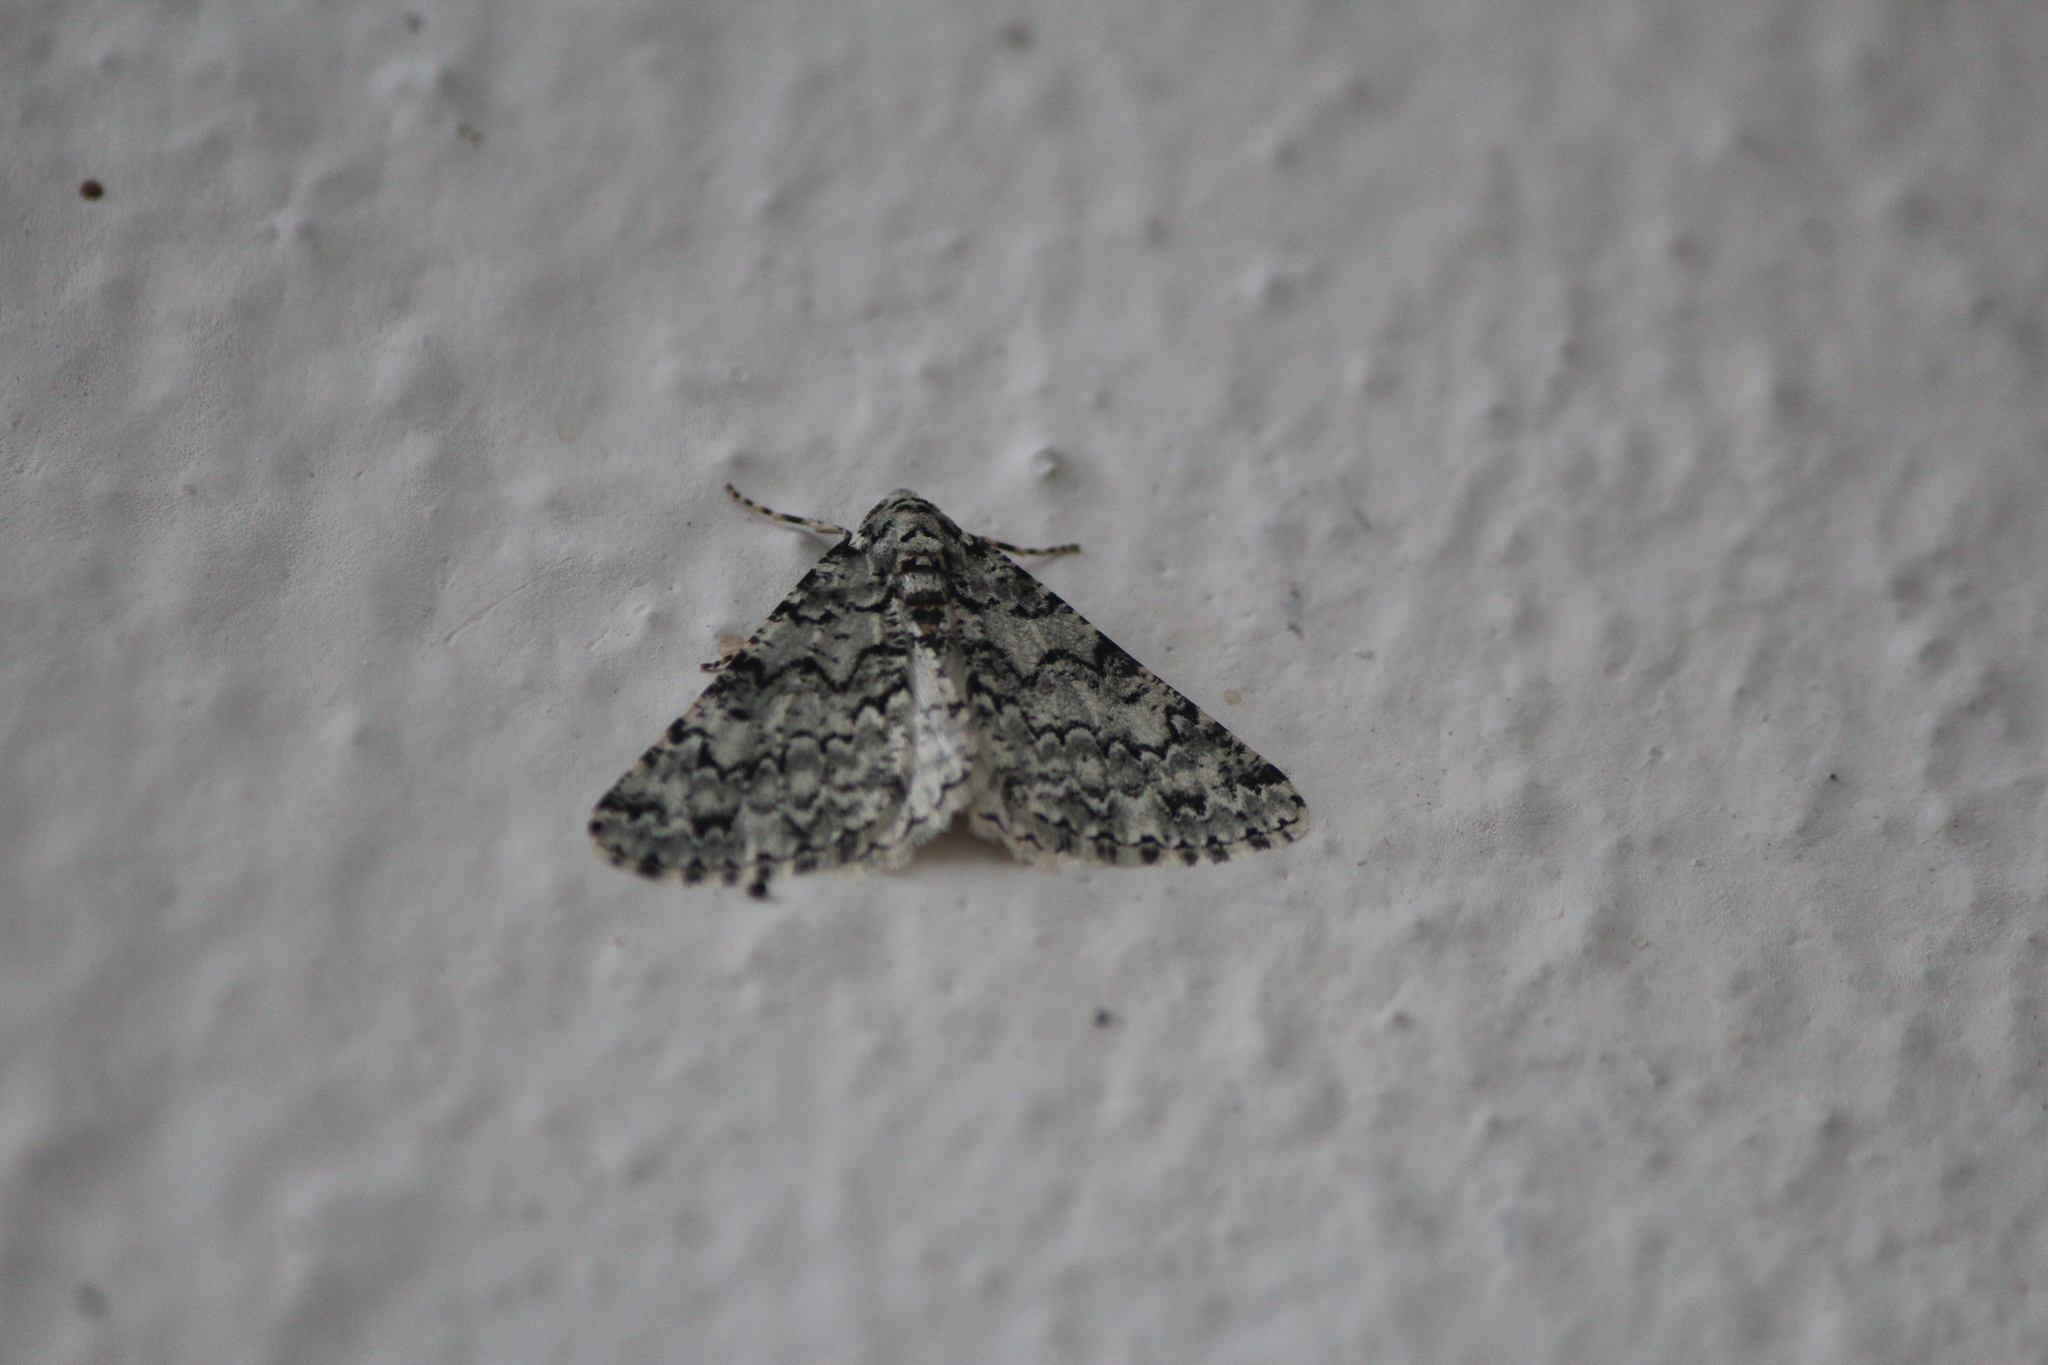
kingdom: Animalia
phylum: Arthropoda
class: Insecta
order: Lepidoptera
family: Geometridae
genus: Tracheops
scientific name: Tracheops bolteri
